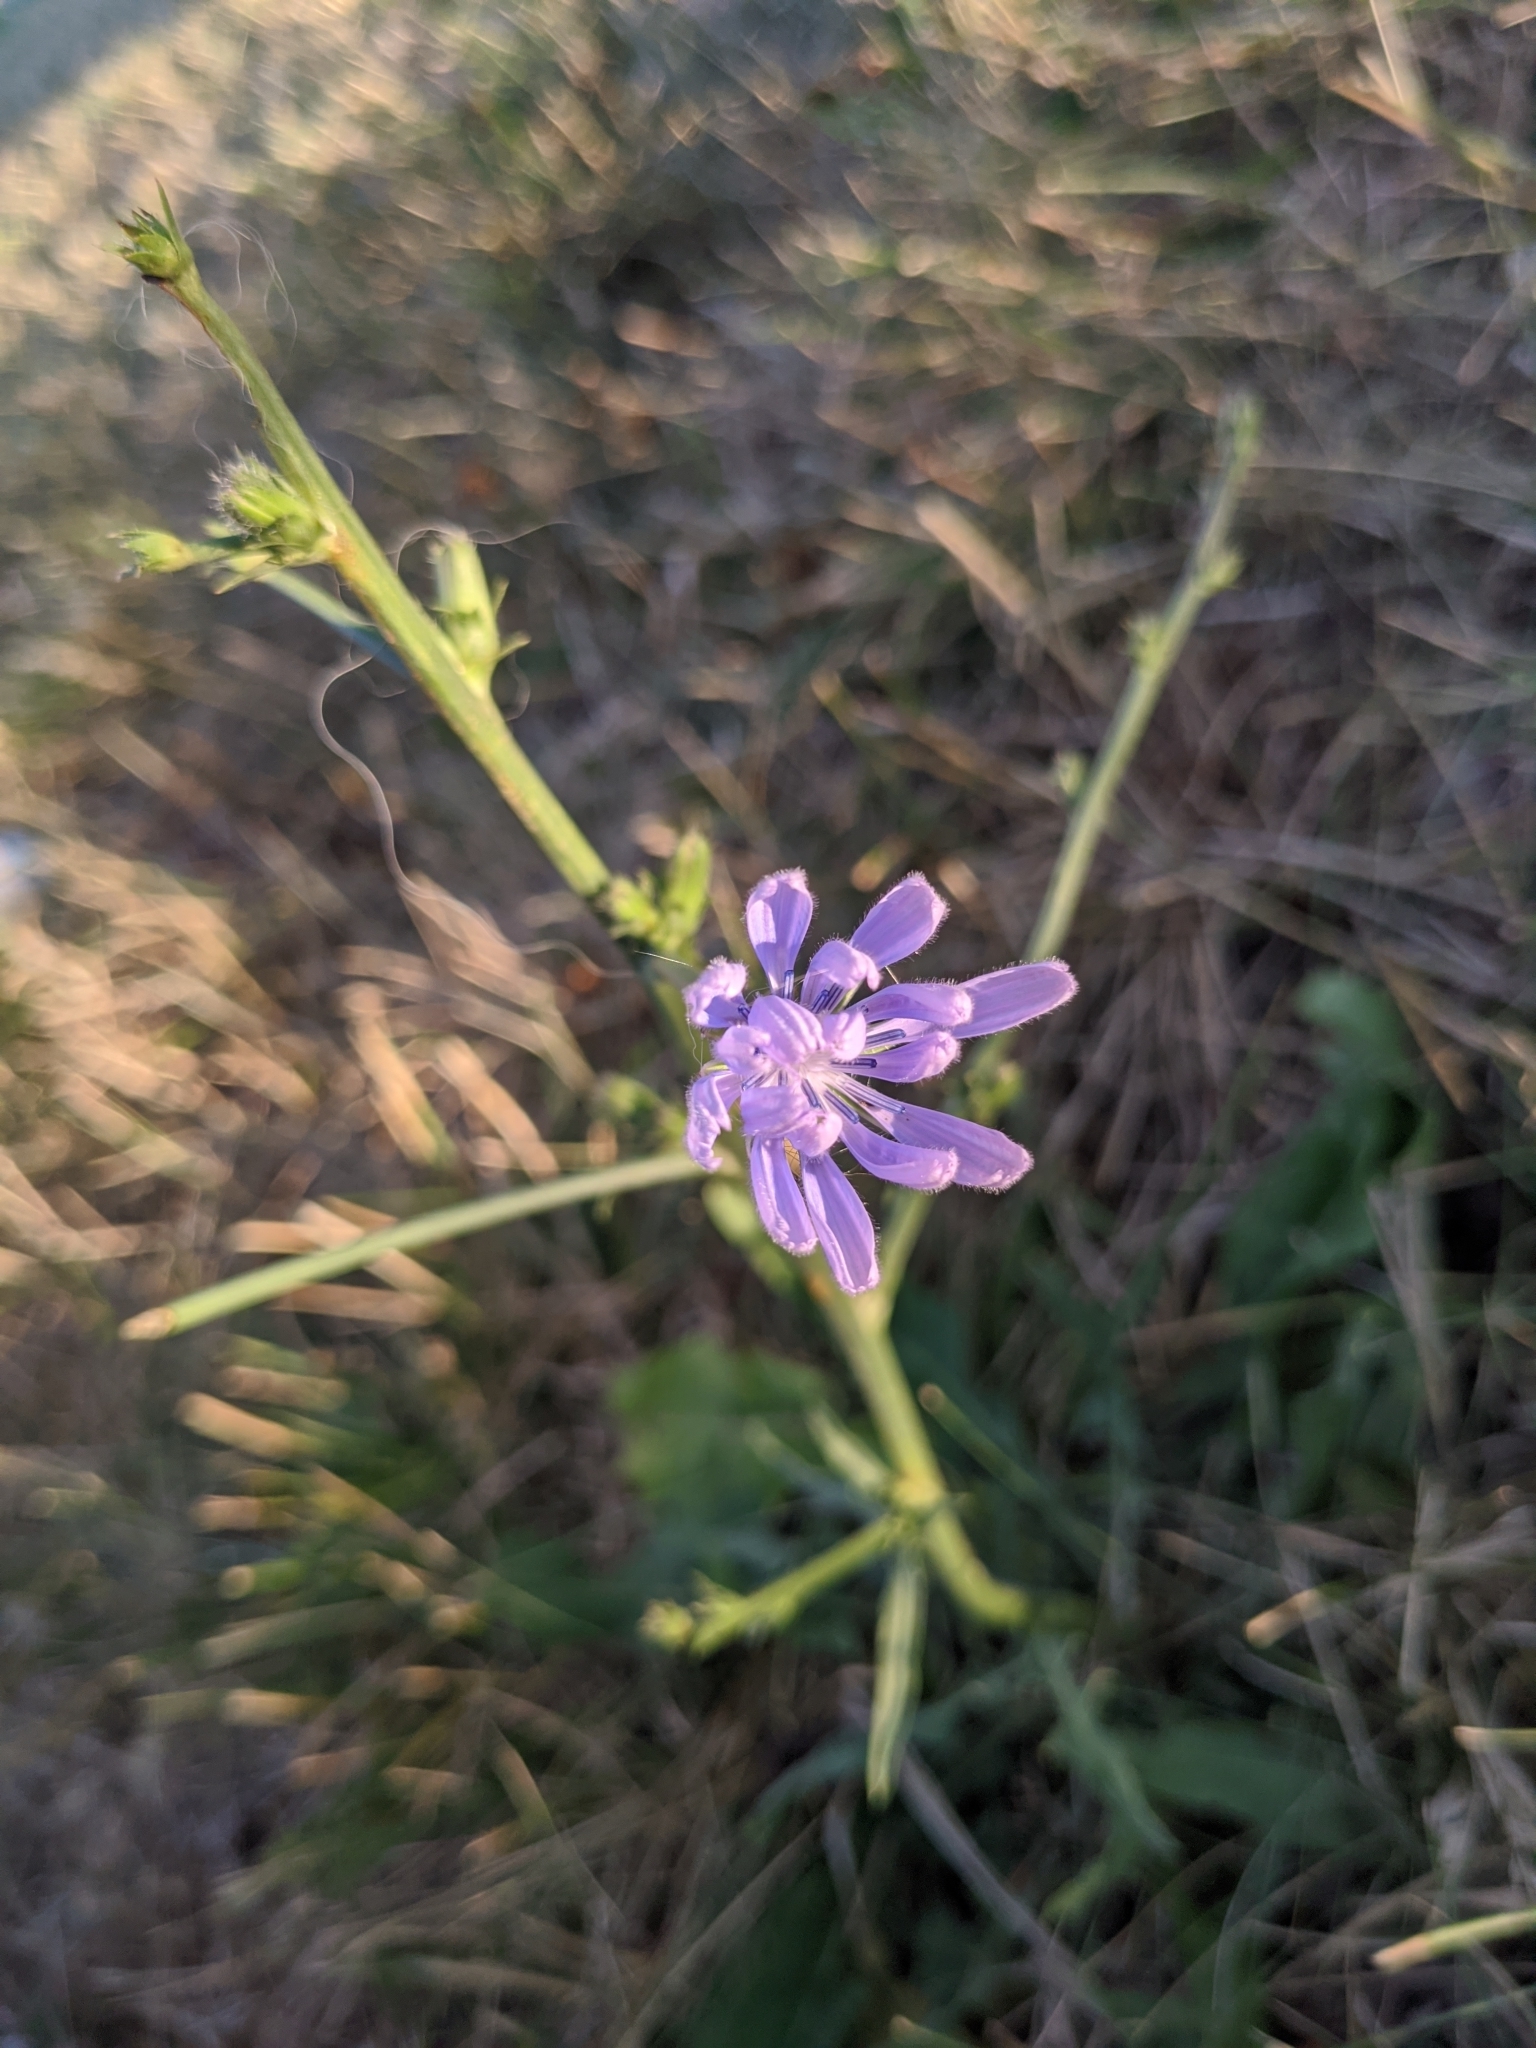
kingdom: Plantae
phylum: Tracheophyta
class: Magnoliopsida
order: Asterales
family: Asteraceae
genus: Cichorium
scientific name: Cichorium intybus
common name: Chicory
